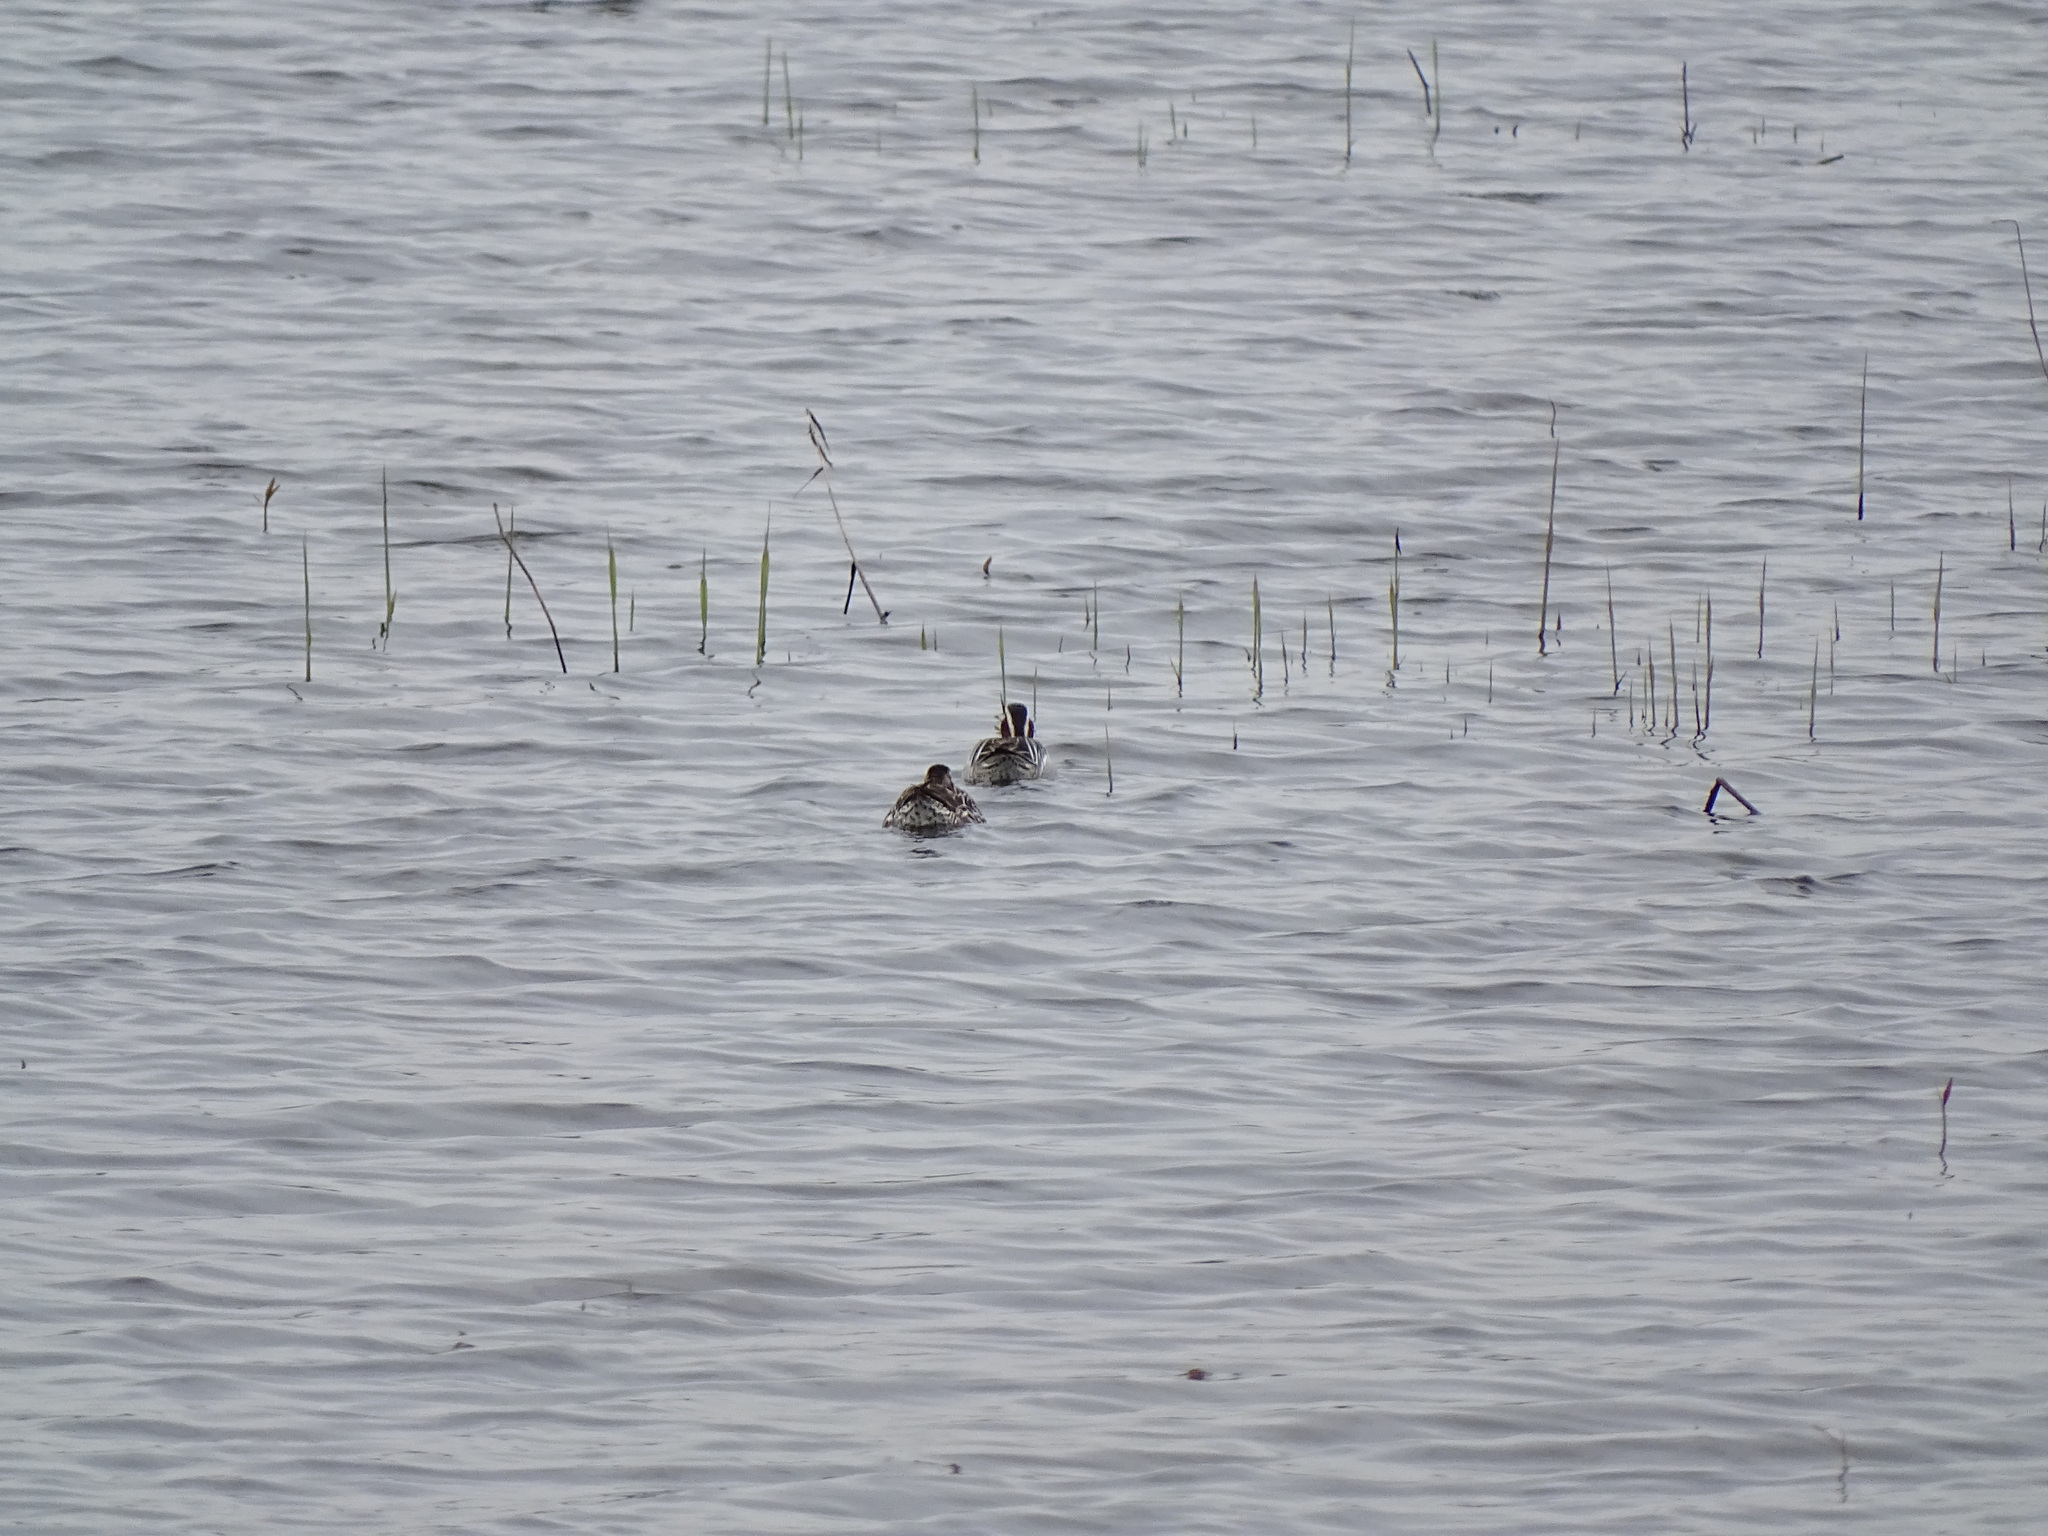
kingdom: Animalia
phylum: Chordata
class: Aves
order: Anseriformes
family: Anatidae
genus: Spatula
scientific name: Spatula querquedula
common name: Garganey
